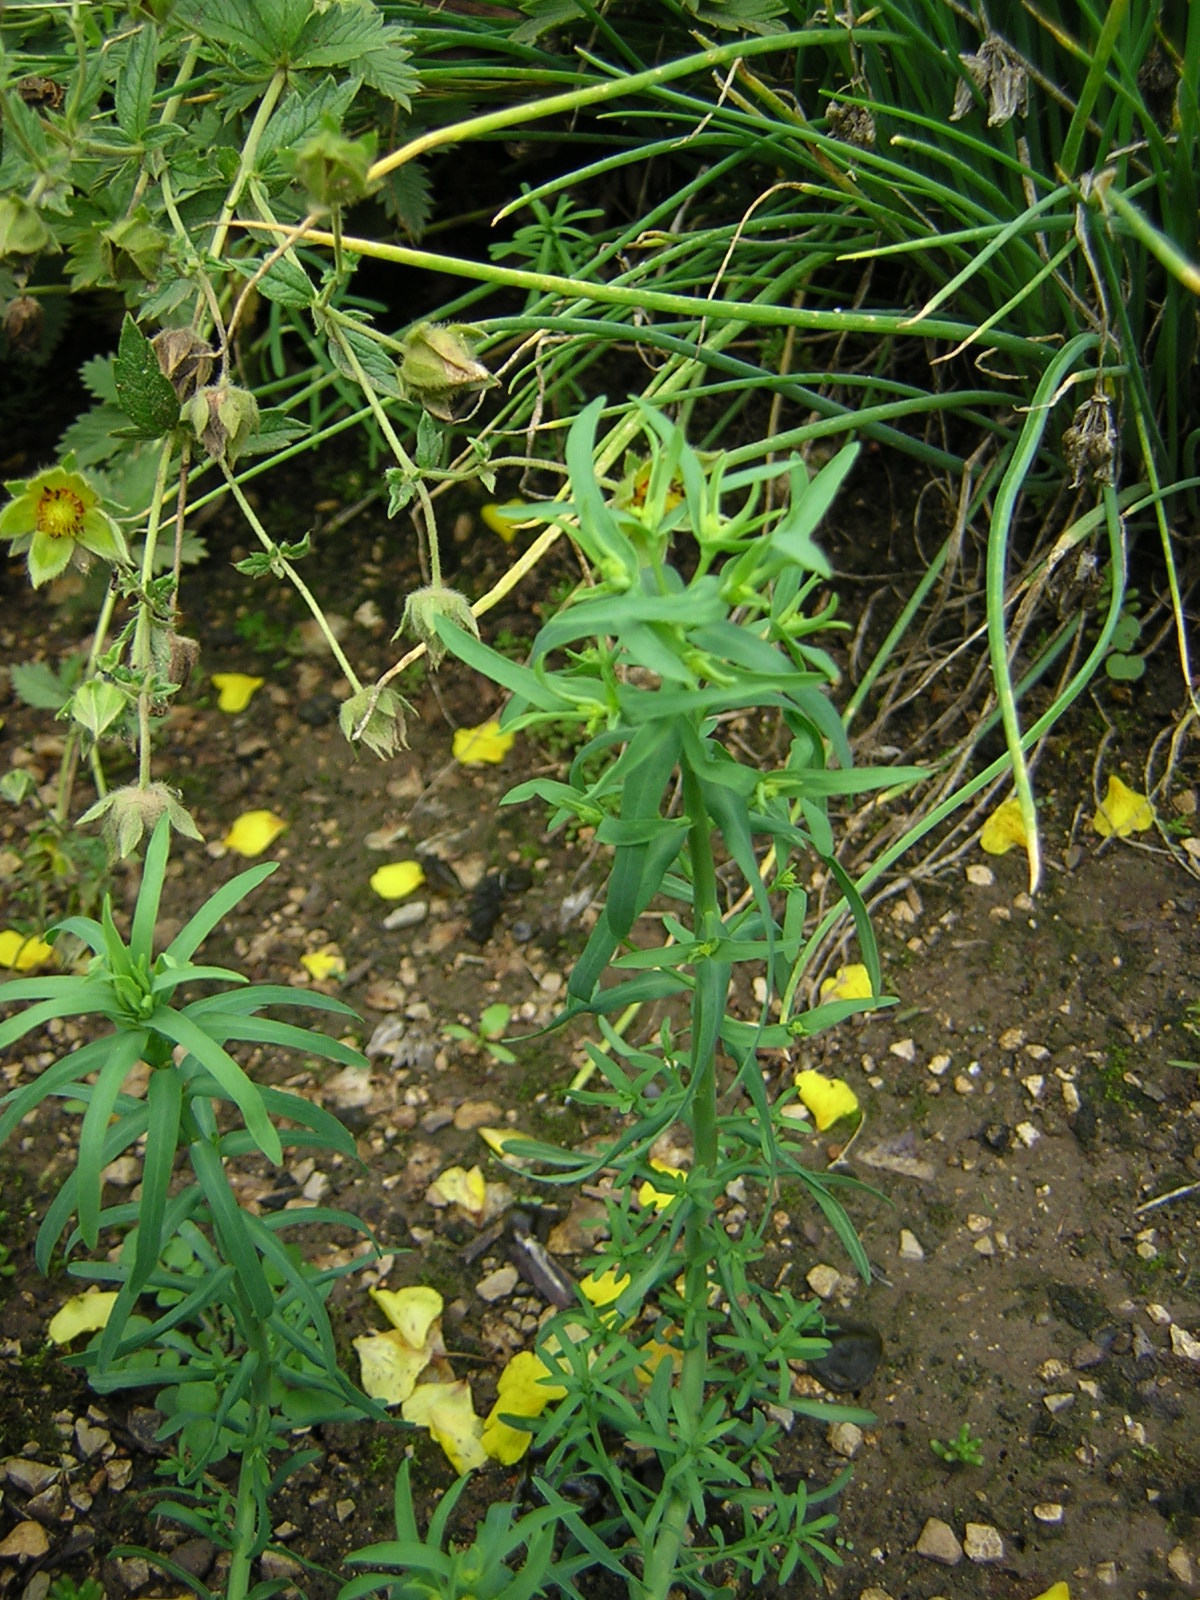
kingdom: Plantae
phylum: Tracheophyta
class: Magnoliopsida
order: Malpighiales
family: Euphorbiaceae
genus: Euphorbia
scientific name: Euphorbia exigua
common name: Dwarf spurge
